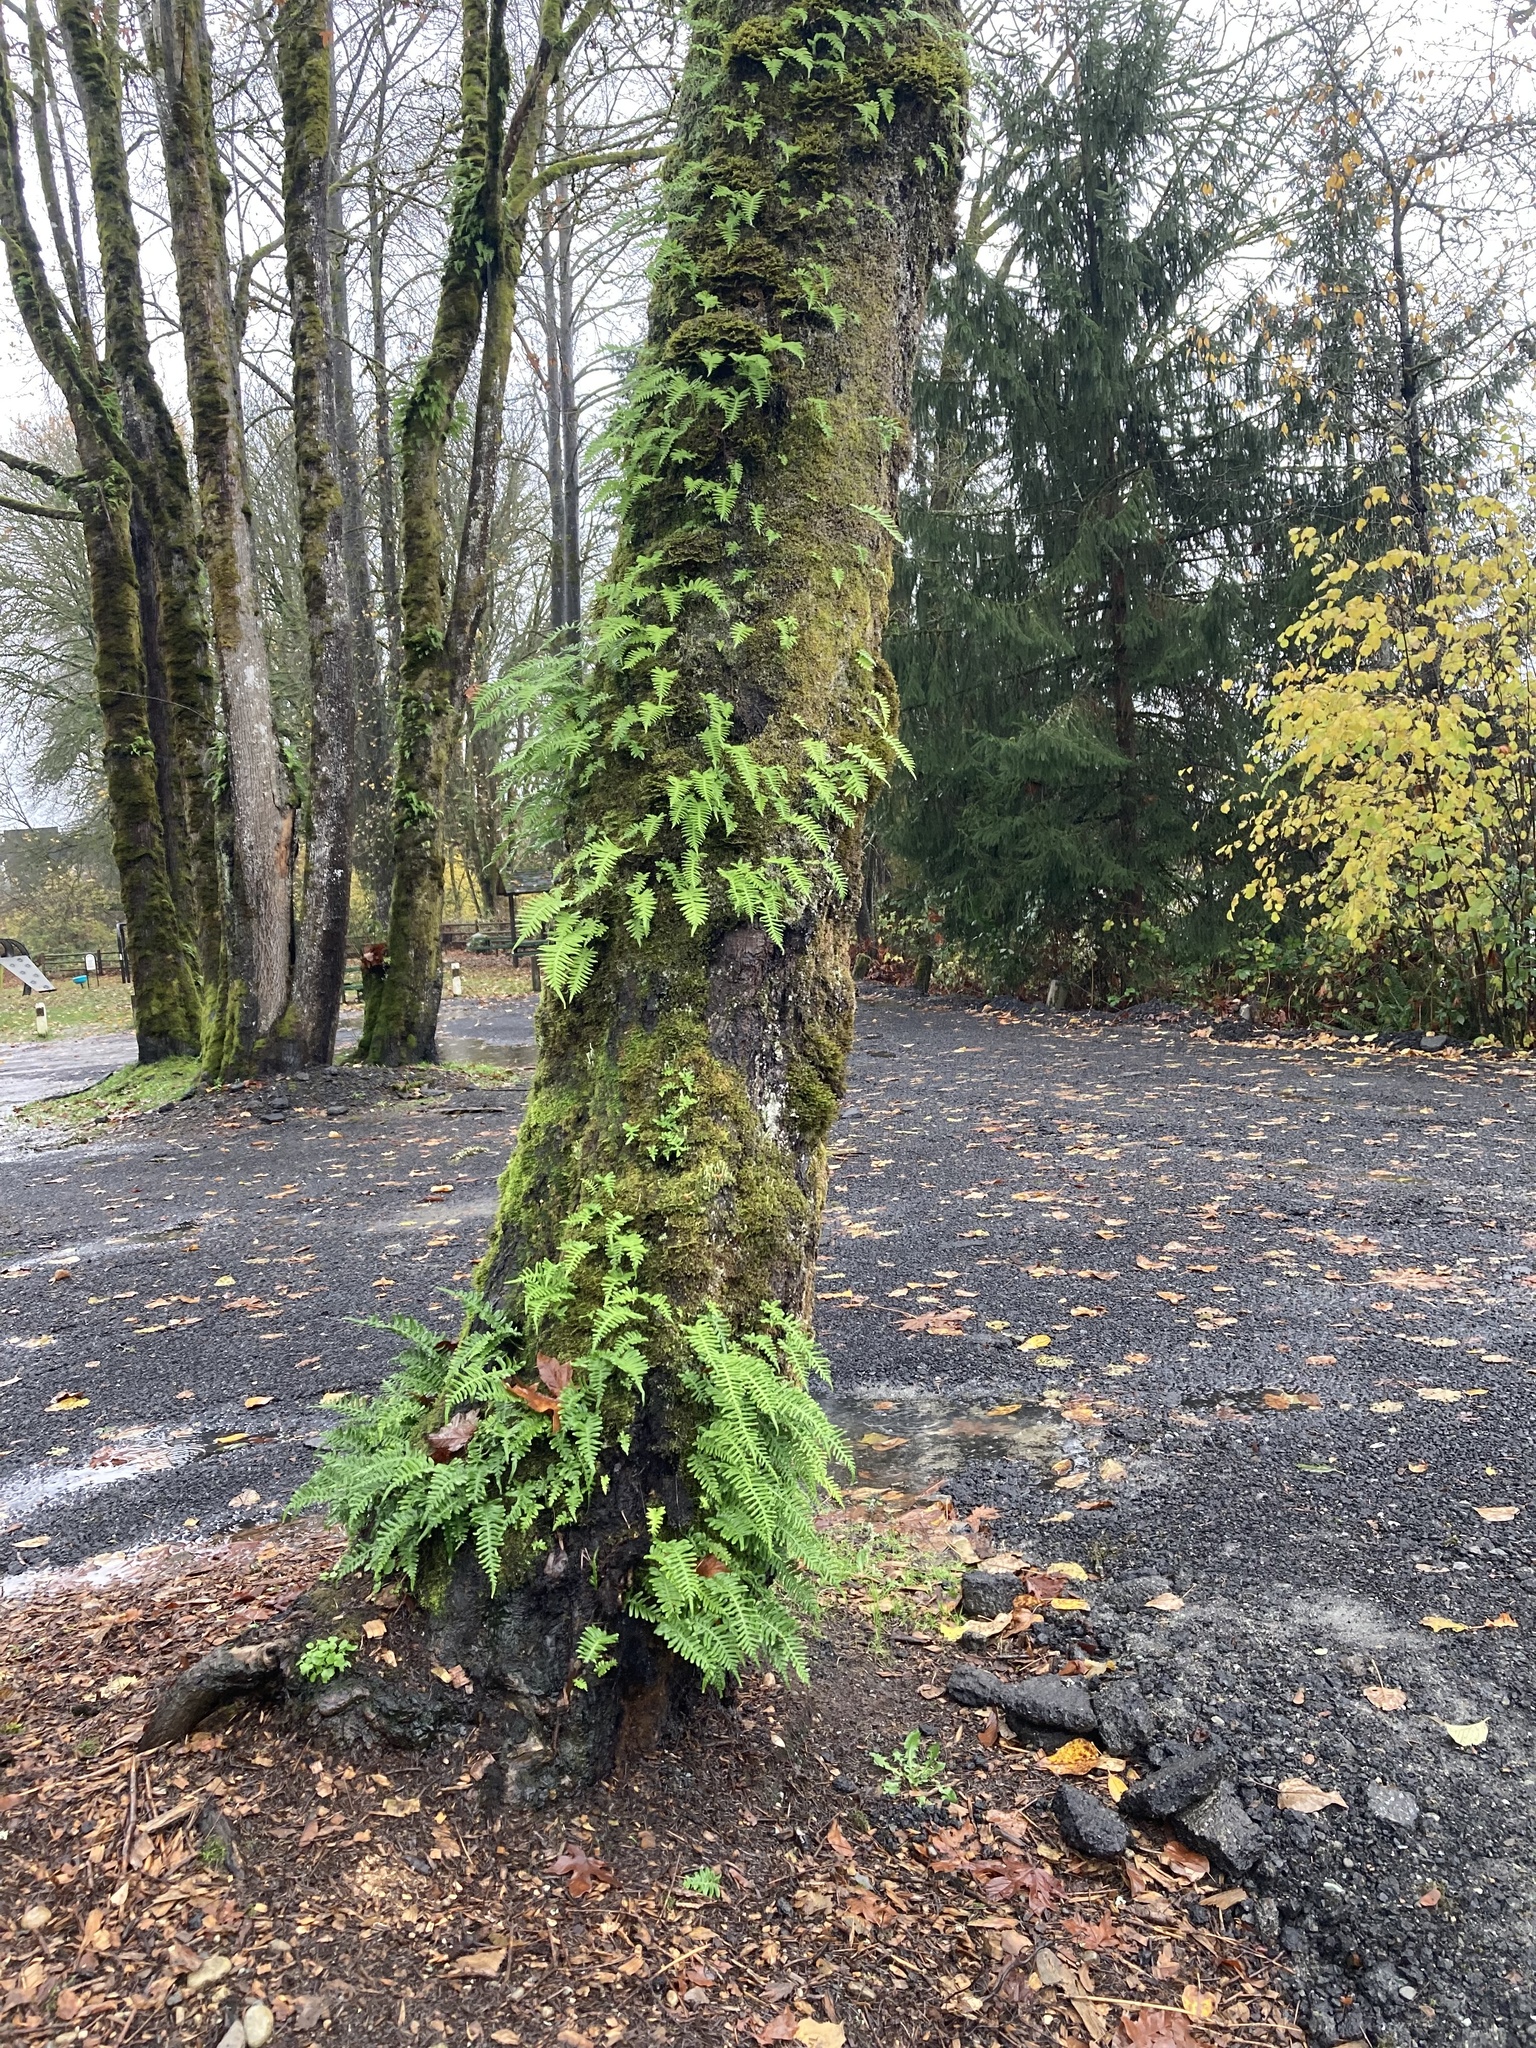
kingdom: Plantae
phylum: Tracheophyta
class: Polypodiopsida
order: Polypodiales
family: Polypodiaceae
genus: Polypodium
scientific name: Polypodium glycyrrhiza
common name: Licorice fern
